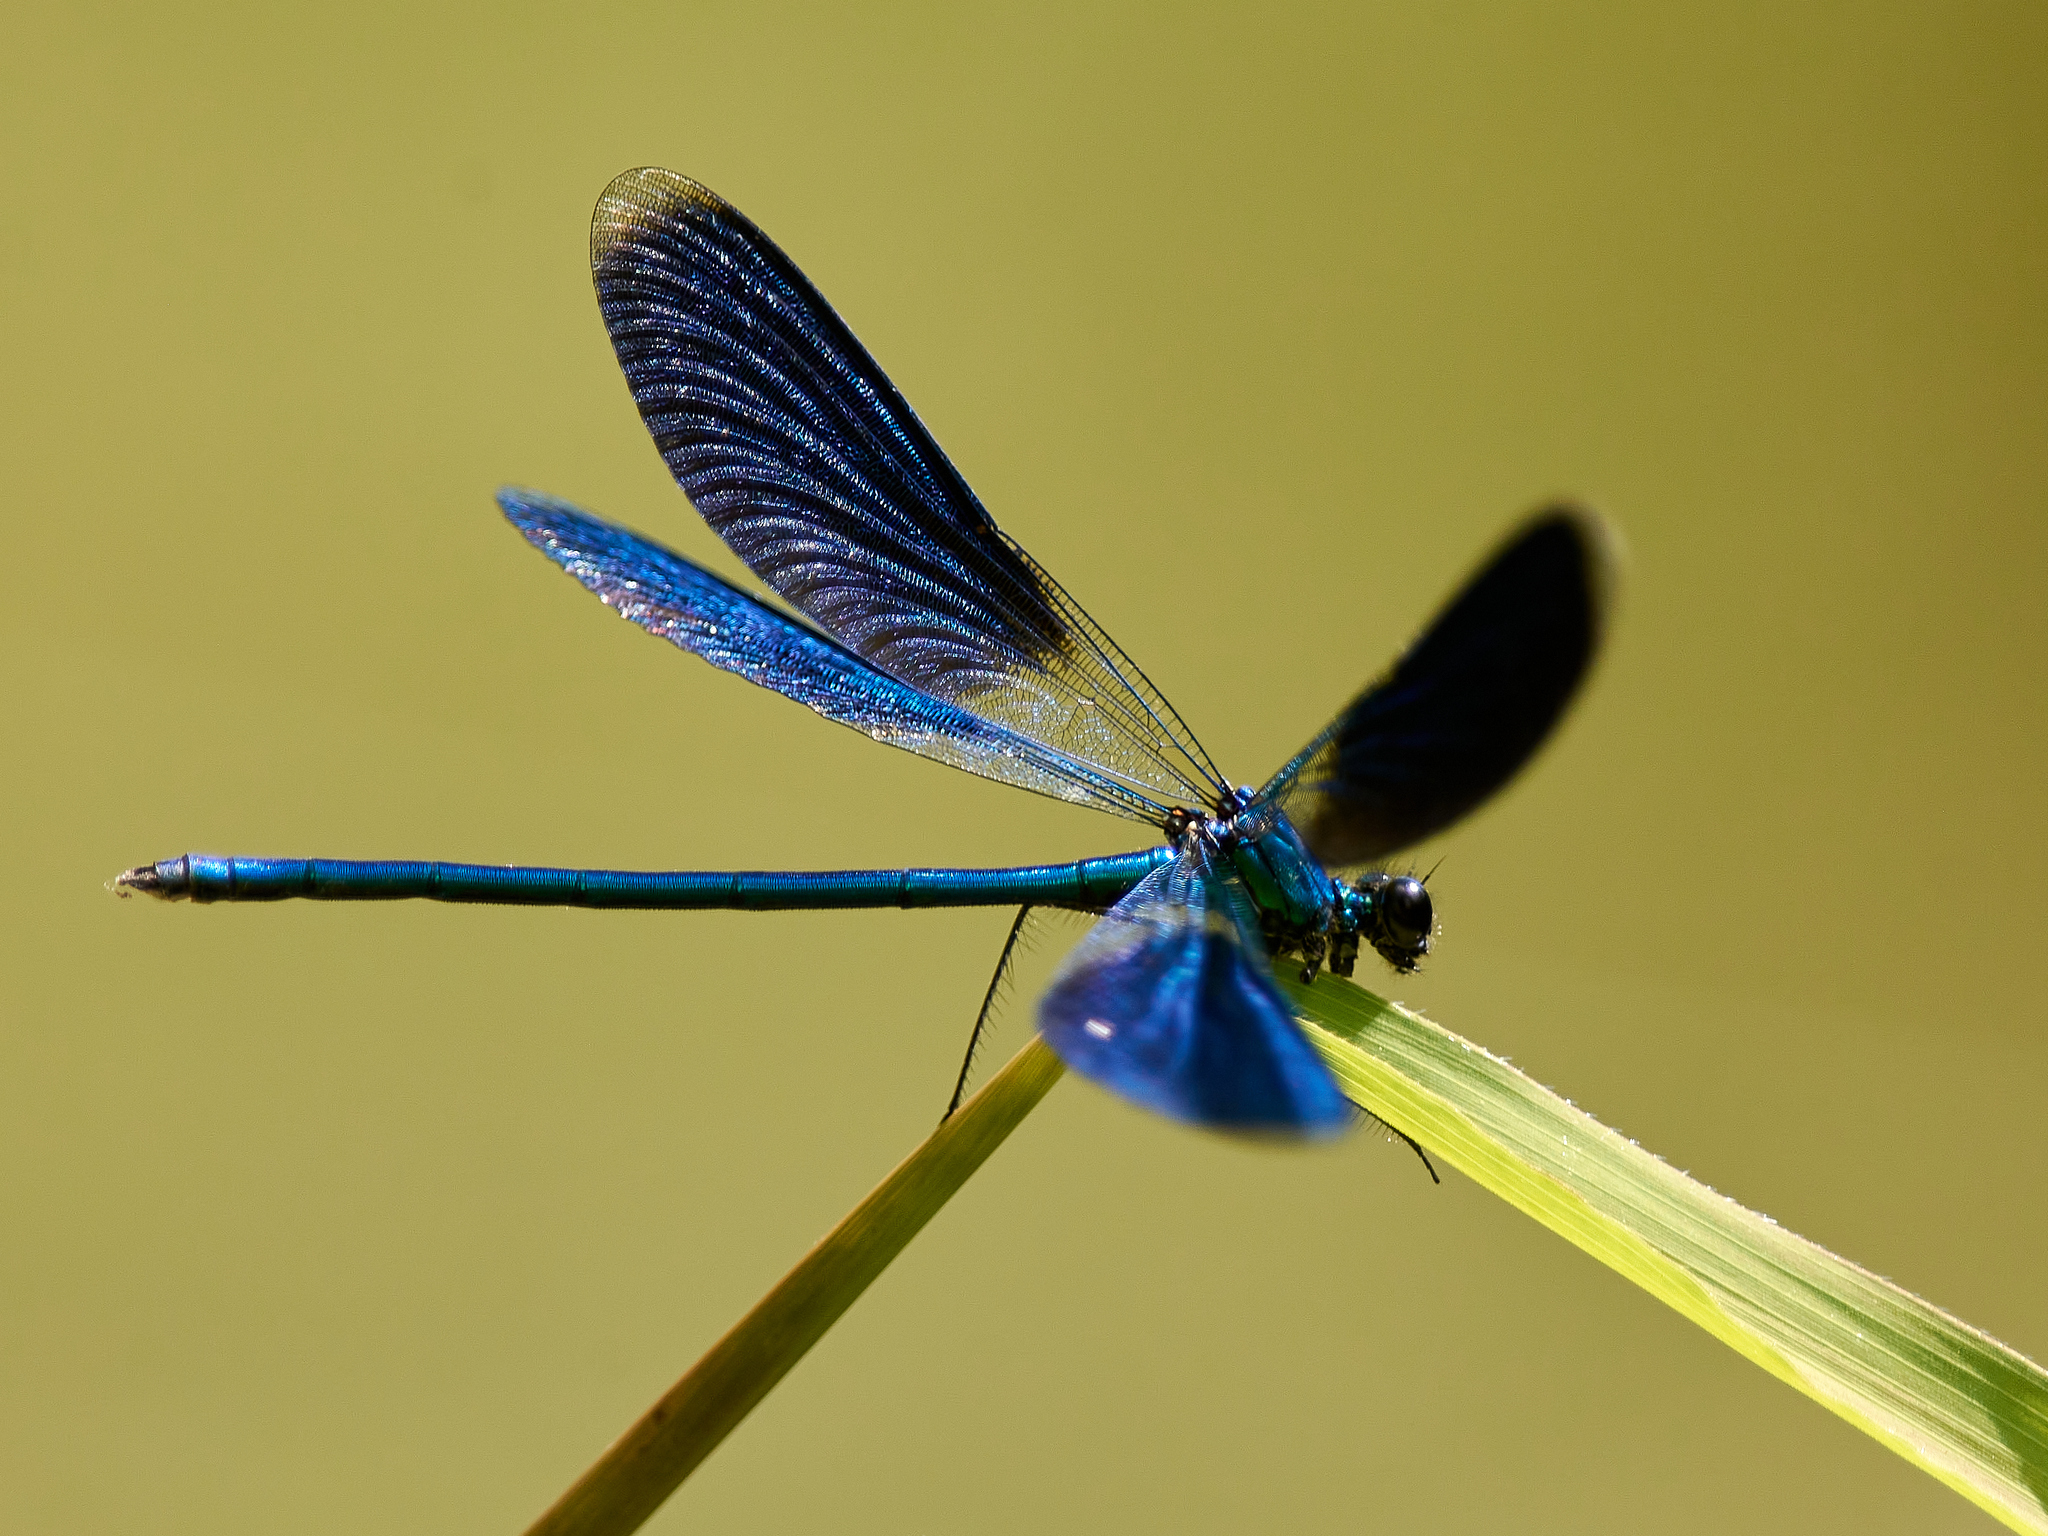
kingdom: Animalia
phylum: Arthropoda
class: Insecta
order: Odonata
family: Calopterygidae
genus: Calopteryx
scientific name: Calopteryx splendens
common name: Banded demoiselle
